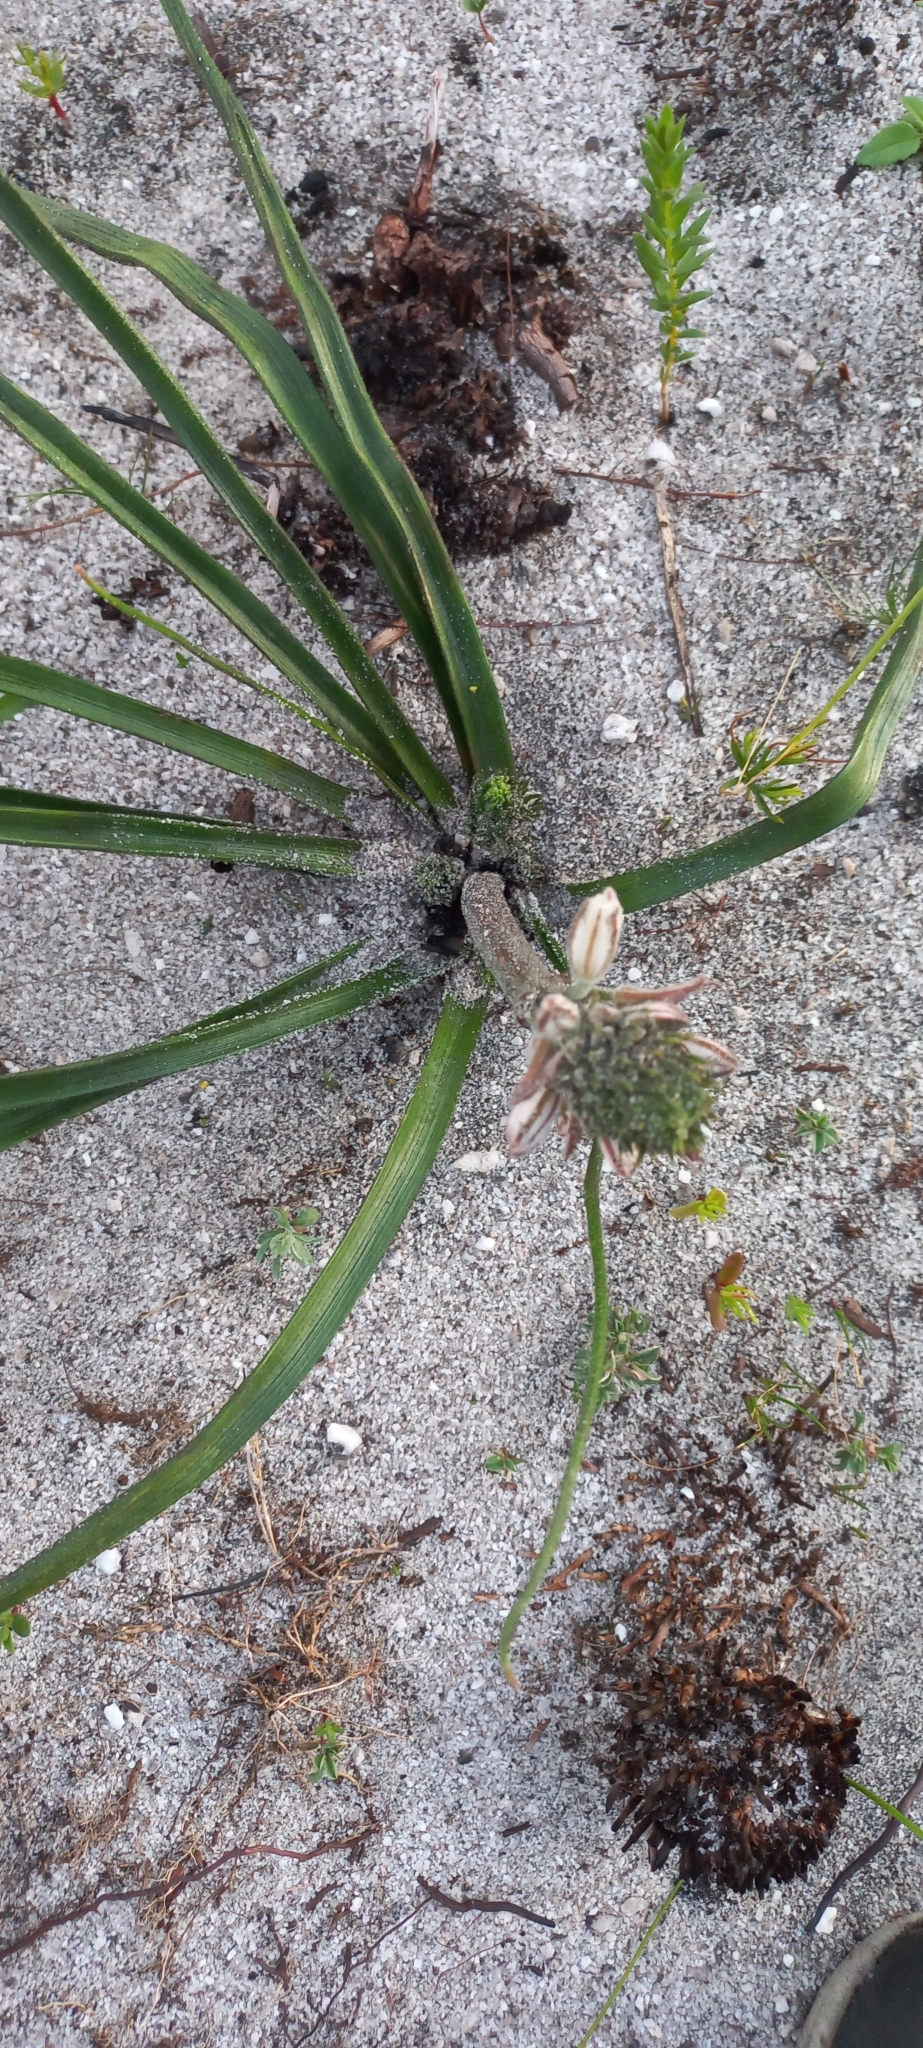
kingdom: Plantae
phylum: Tracheophyta
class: Liliopsida
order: Asparagales
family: Asphodelaceae
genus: Trachyandra
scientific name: Trachyandra hirsutiflora
